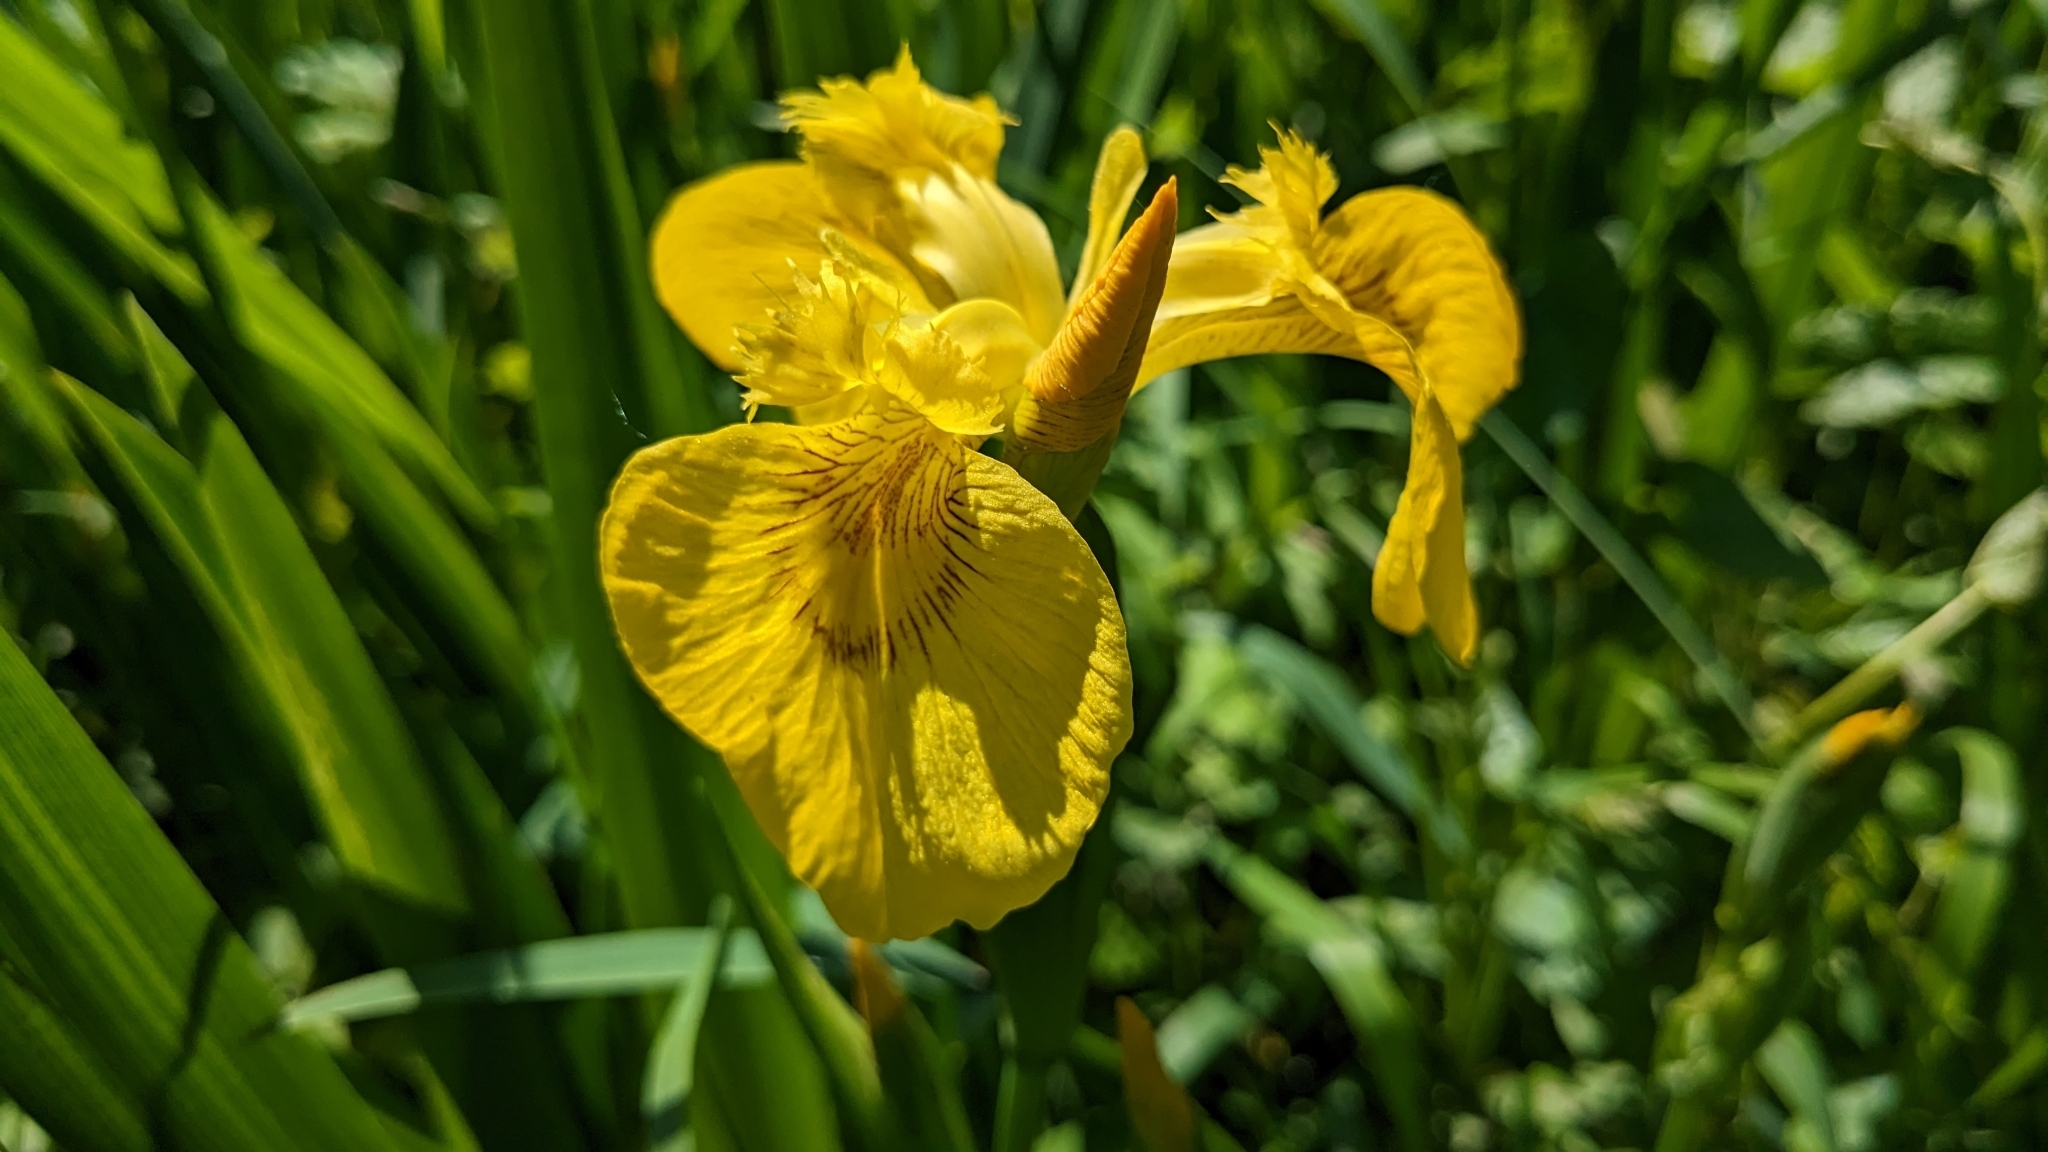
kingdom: Plantae
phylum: Tracheophyta
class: Liliopsida
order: Asparagales
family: Iridaceae
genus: Iris
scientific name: Iris pseudacorus
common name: Yellow flag
